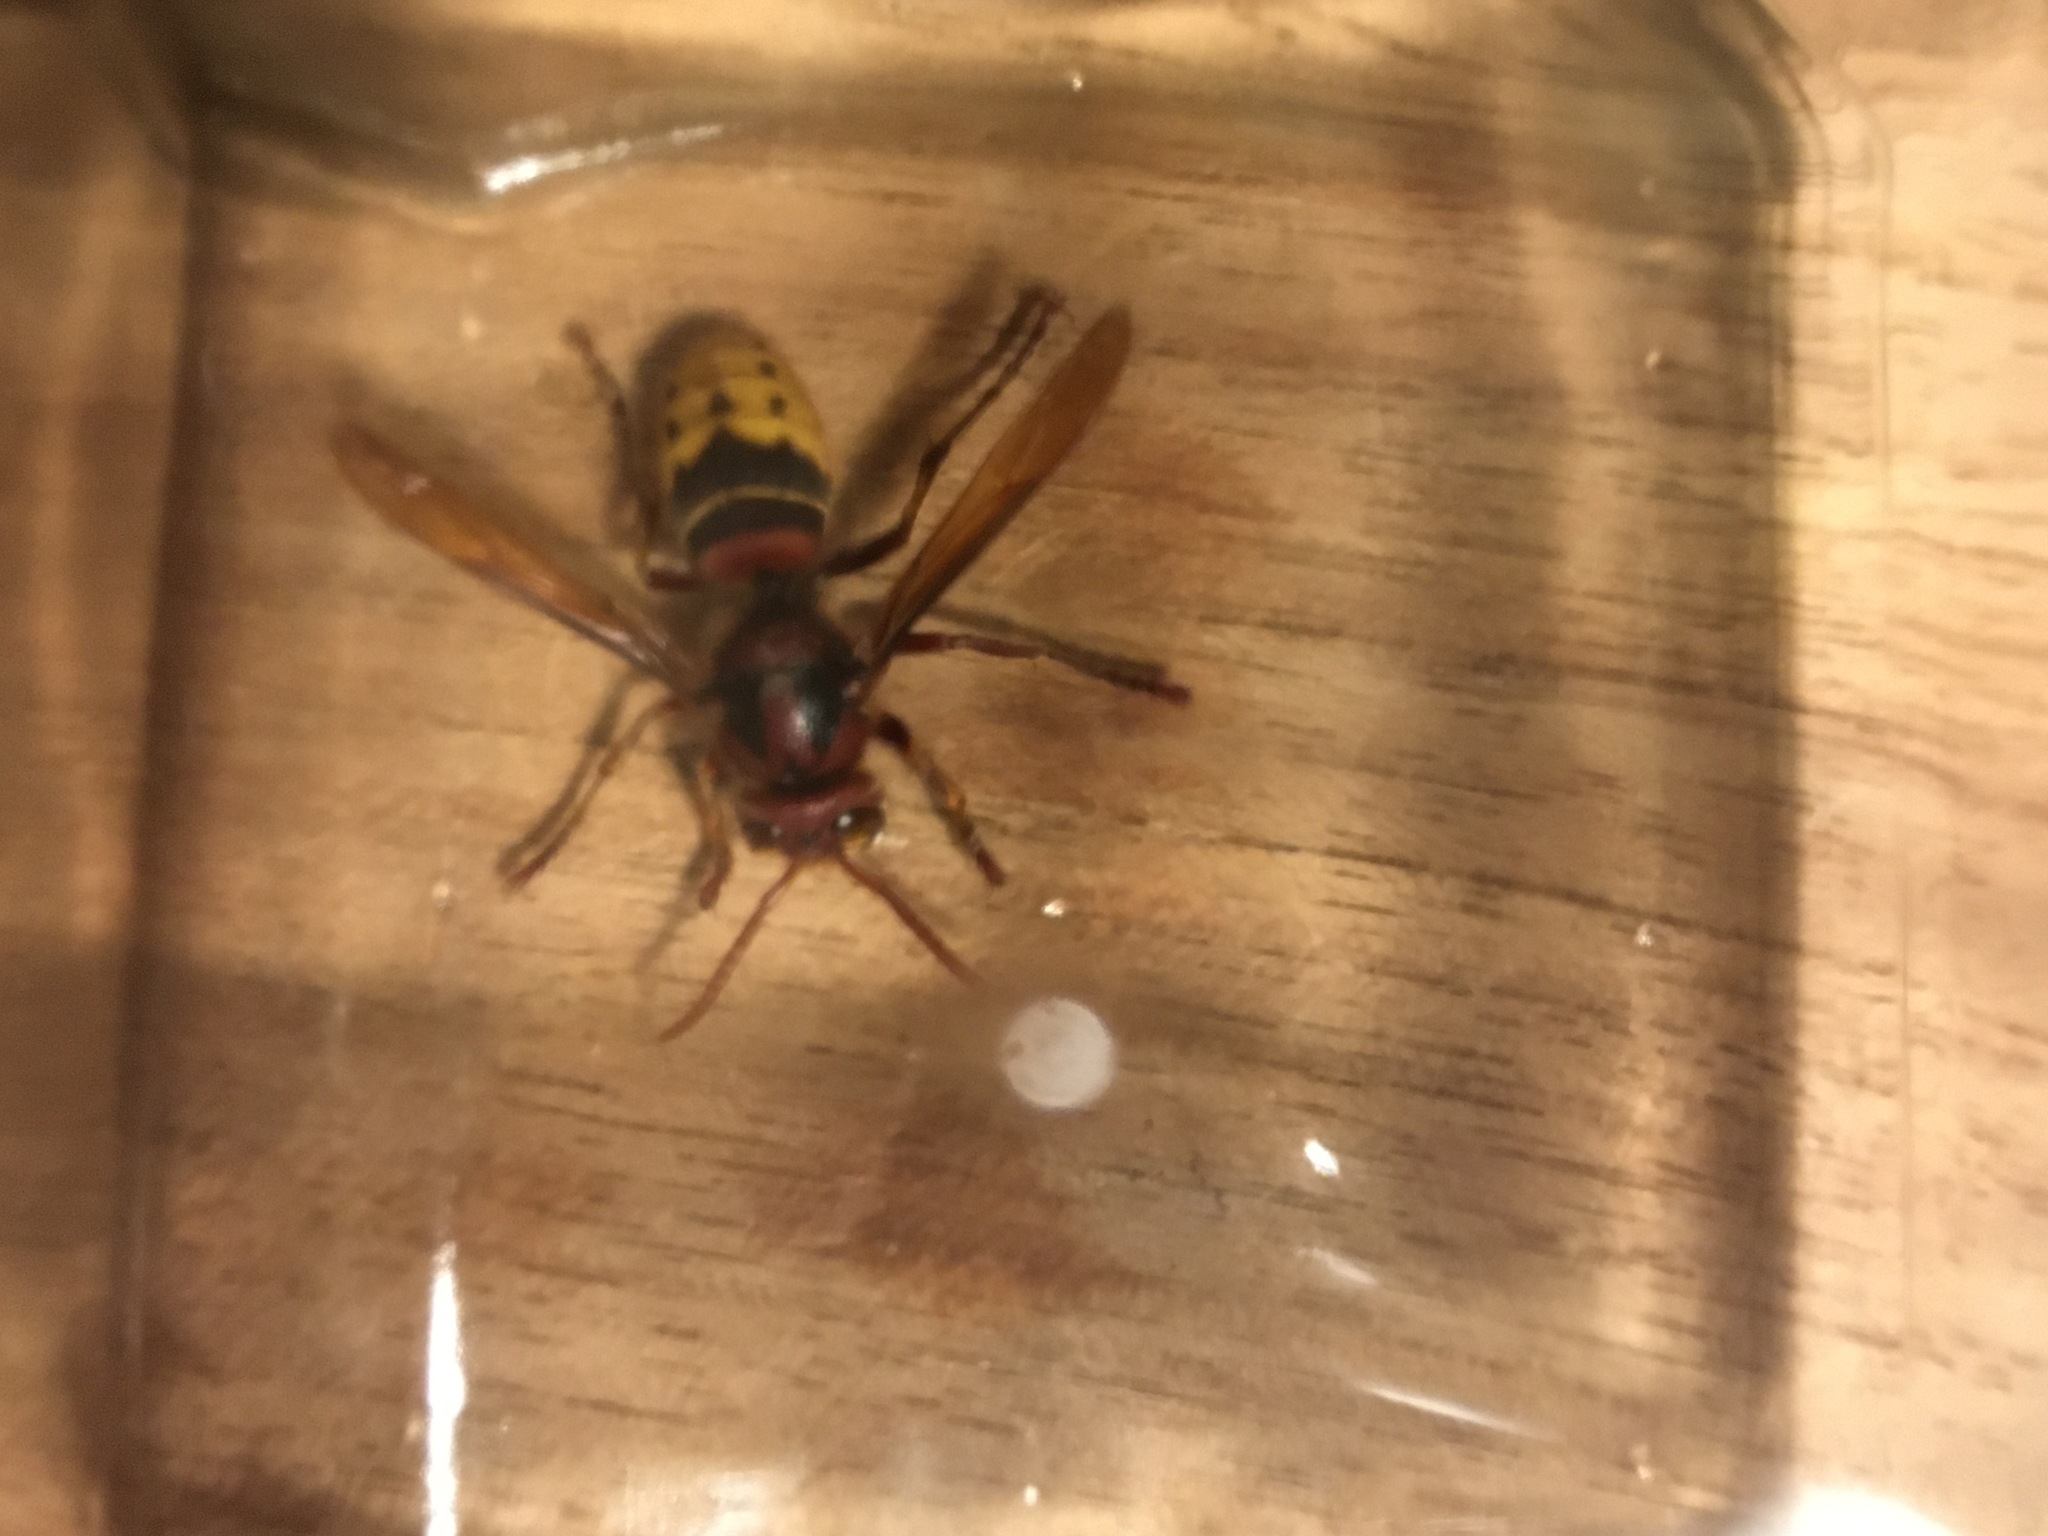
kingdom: Animalia
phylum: Arthropoda
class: Insecta
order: Hymenoptera
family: Vespidae
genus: Vespa
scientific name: Vespa crabro
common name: Hornet
